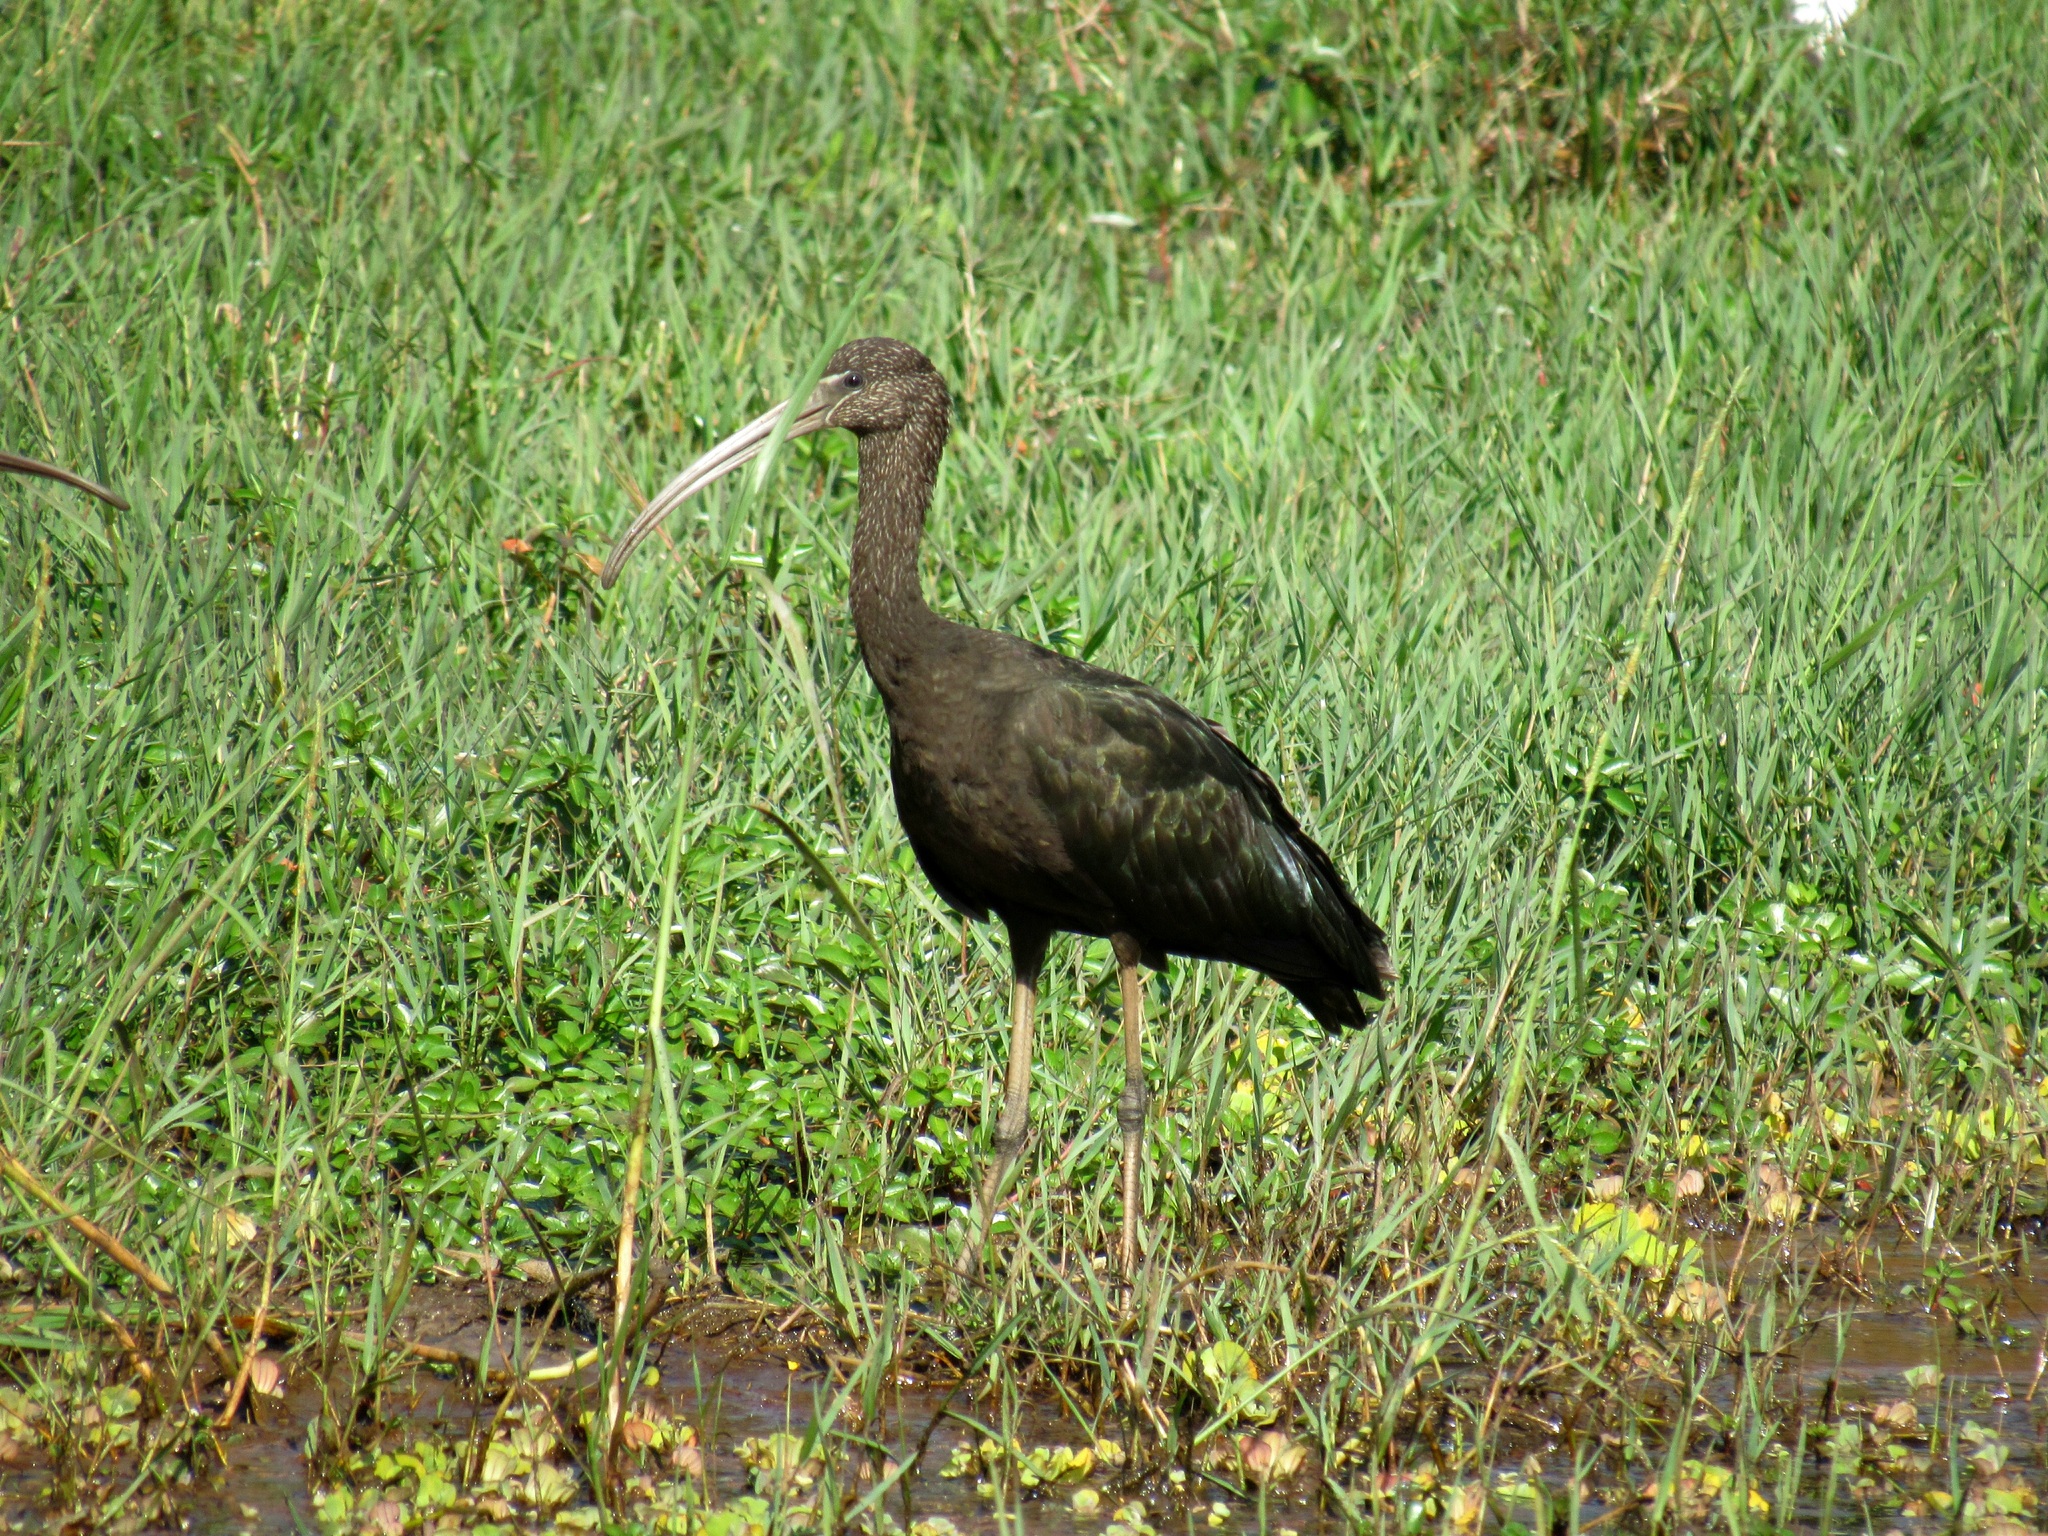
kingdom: Animalia
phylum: Chordata
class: Aves
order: Pelecaniformes
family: Threskiornithidae
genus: Plegadis
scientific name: Plegadis falcinellus
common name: Glossy ibis
